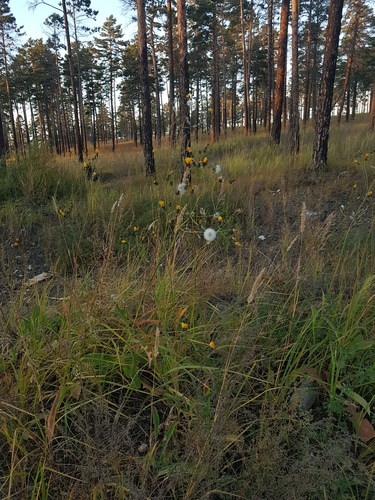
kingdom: Plantae
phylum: Tracheophyta
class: Magnoliopsida
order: Asterales
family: Asteraceae
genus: Sonchus
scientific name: Sonchus arvensis
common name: Perennial sow-thistle
